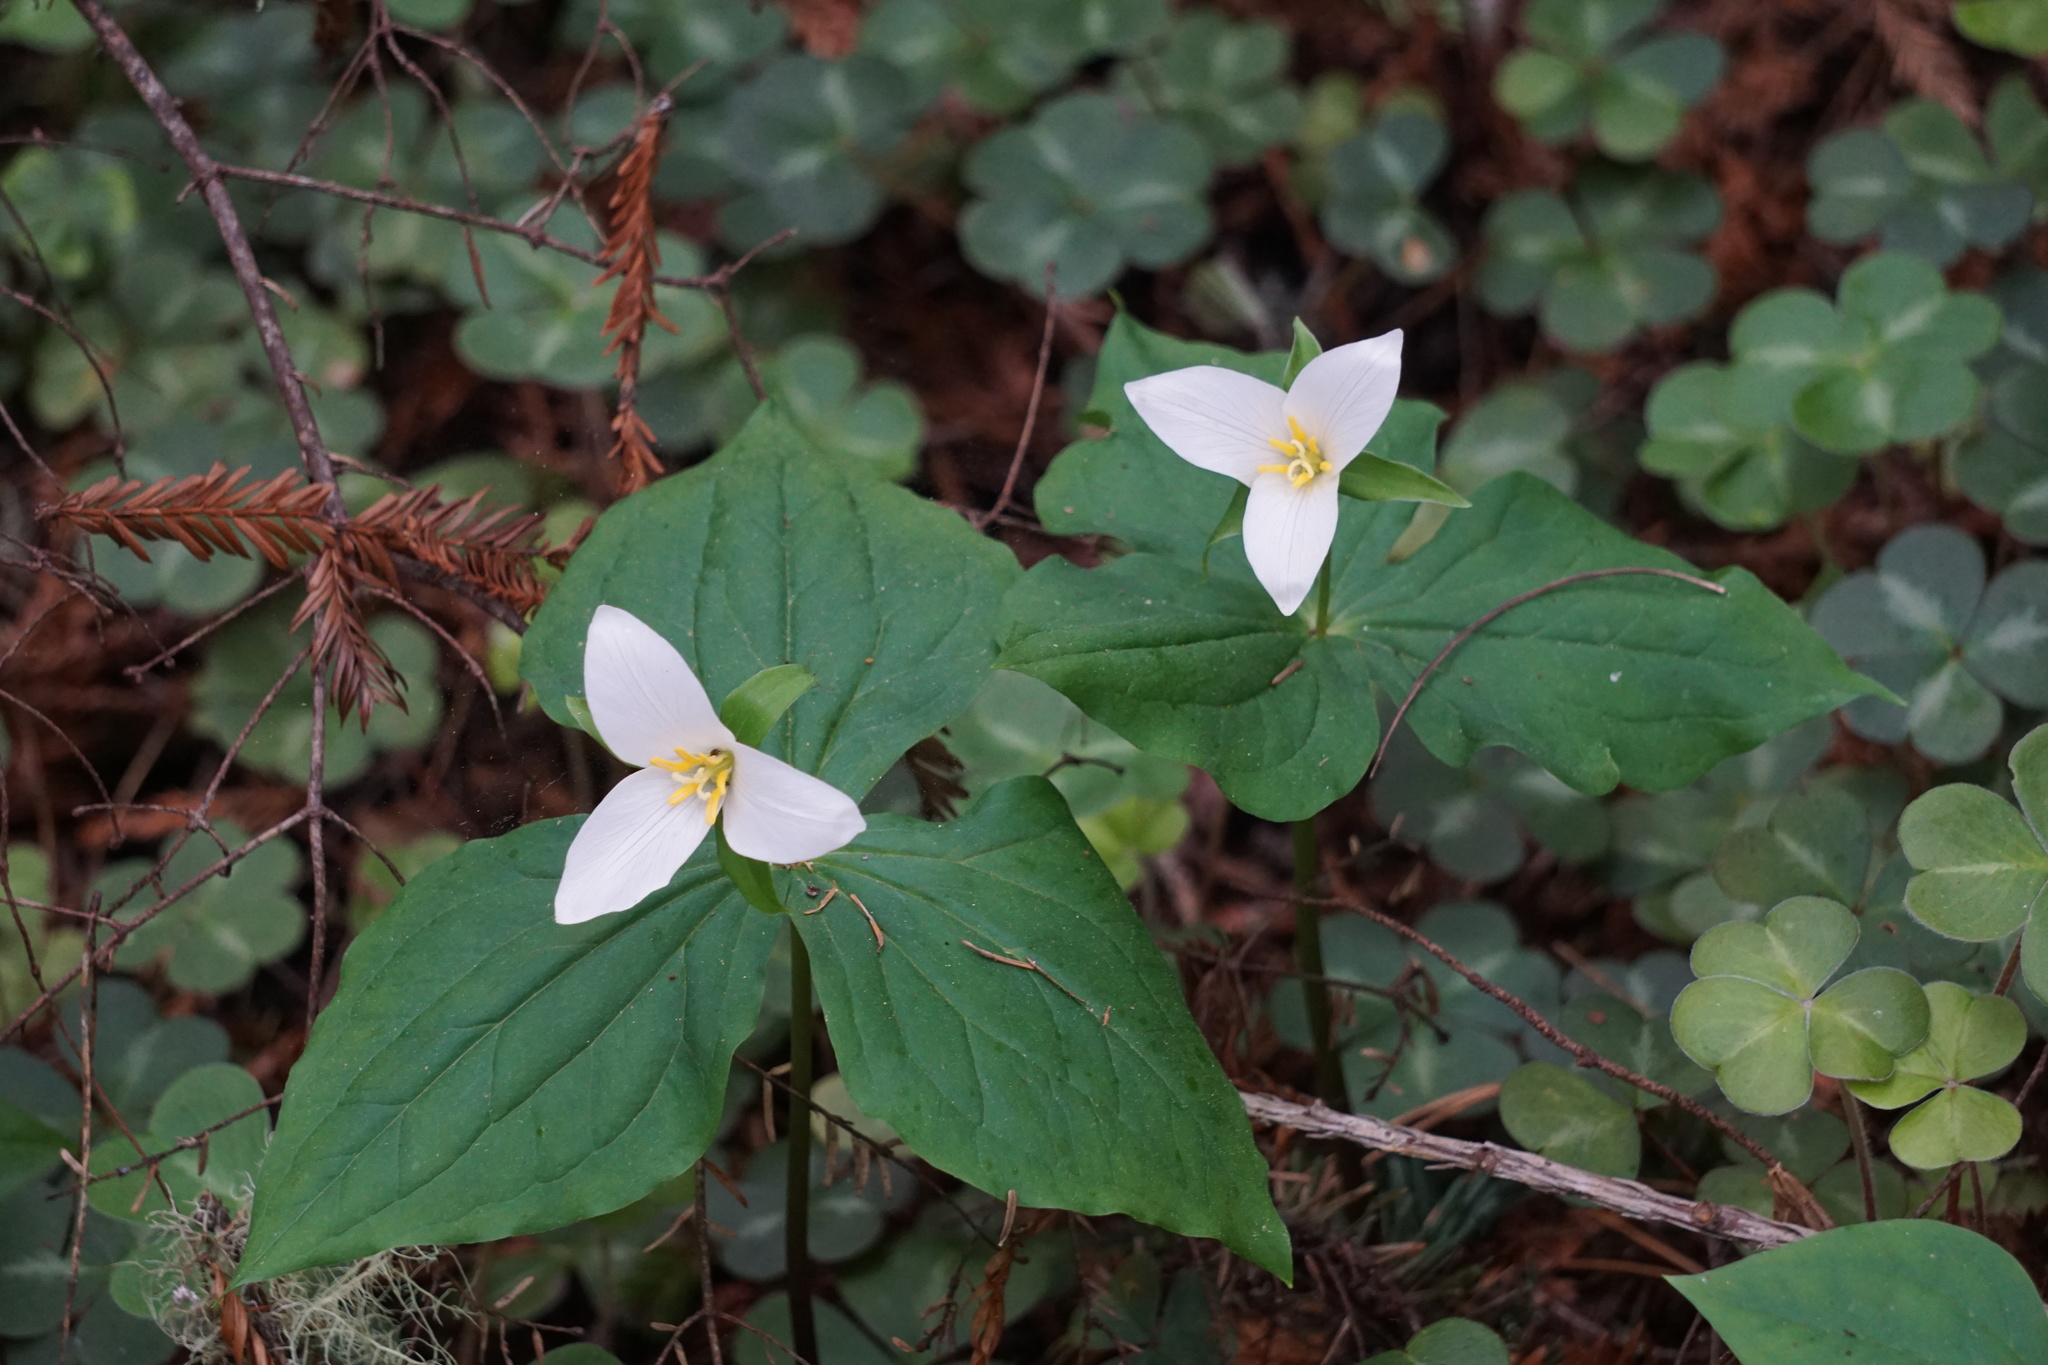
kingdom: Plantae
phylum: Tracheophyta
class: Liliopsida
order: Liliales
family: Melanthiaceae
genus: Trillium
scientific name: Trillium ovatum
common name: Pacific trillium
